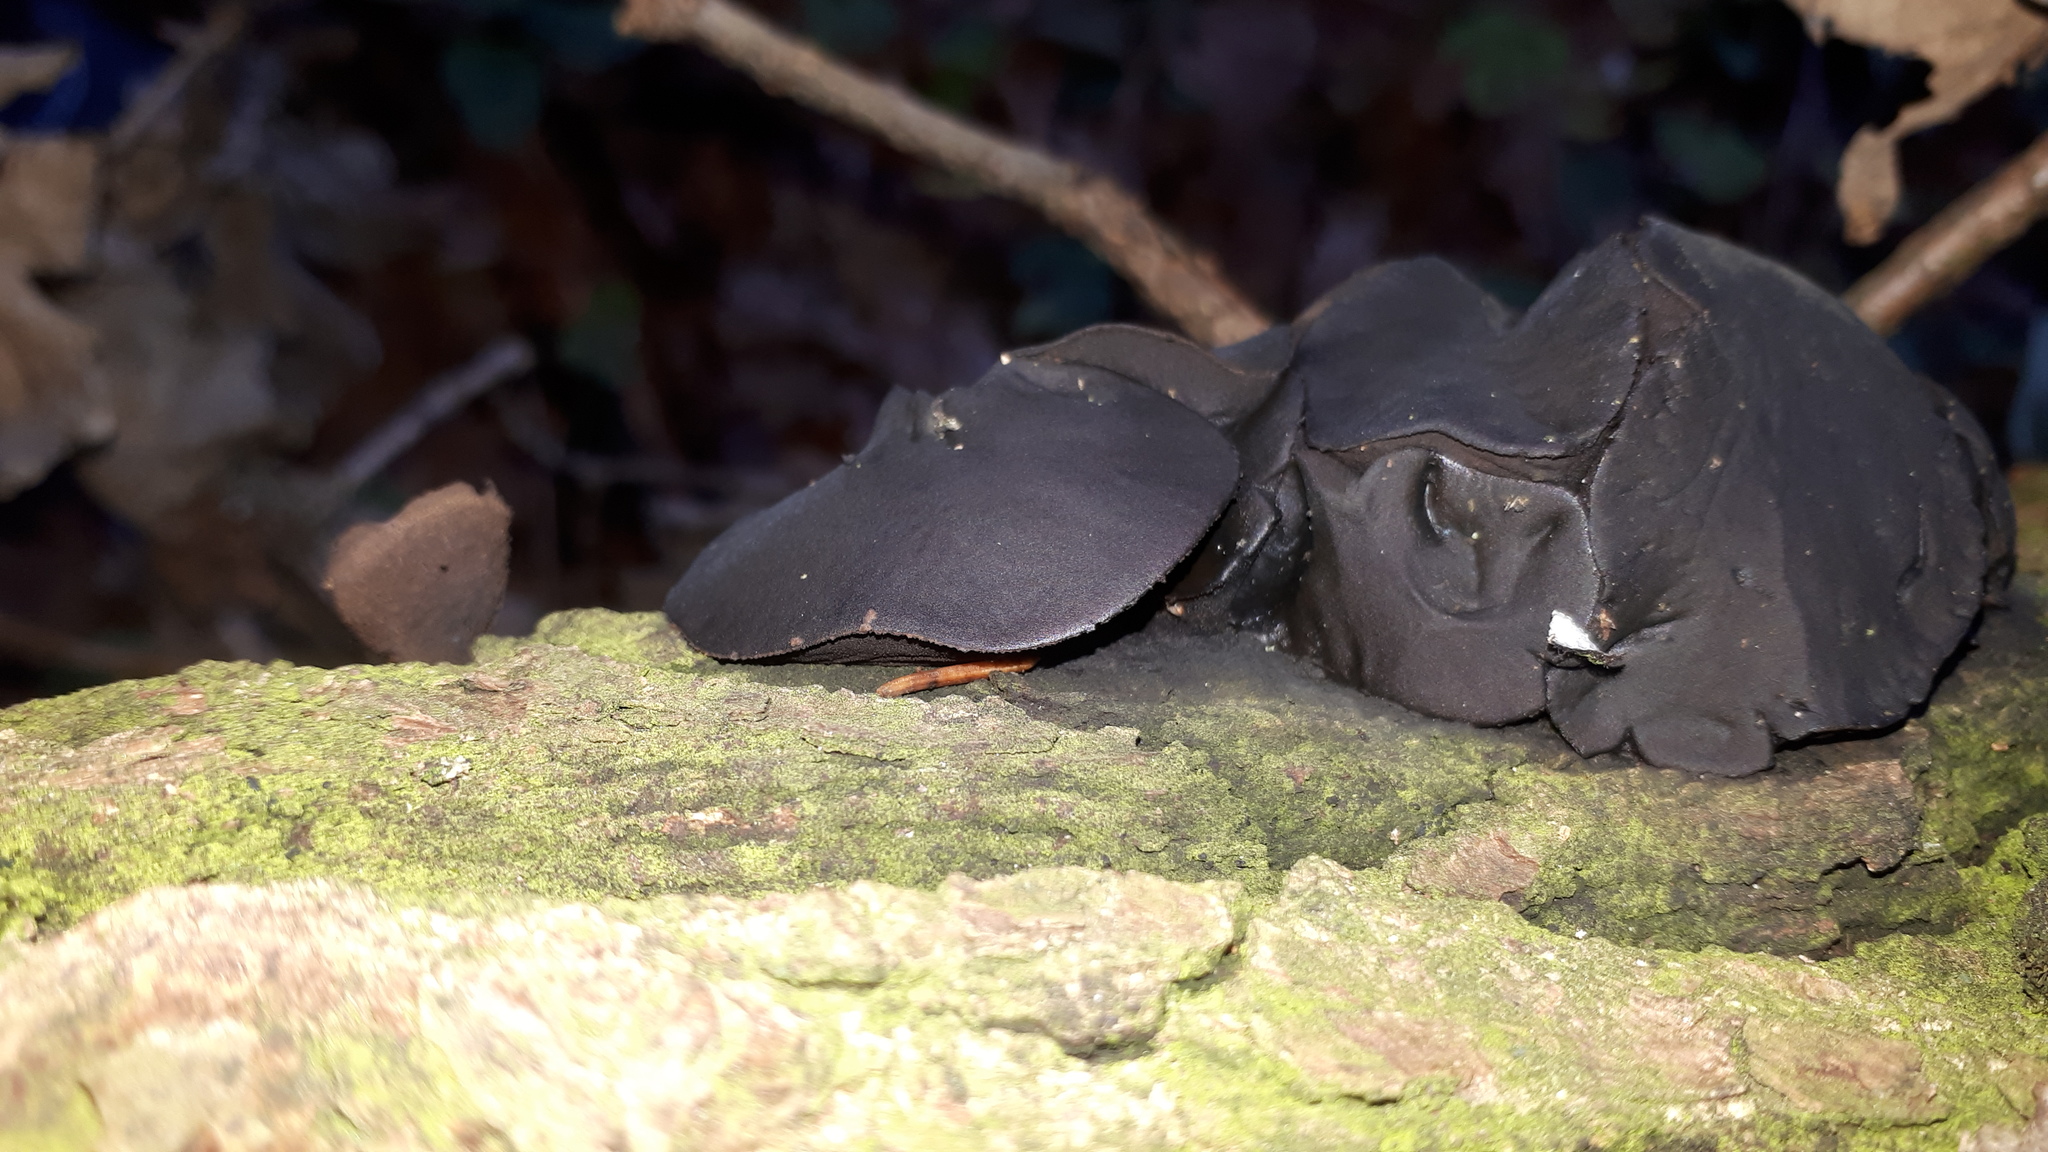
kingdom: Fungi
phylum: Ascomycota
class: Leotiomycetes
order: Phacidiales
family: Phacidiaceae
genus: Bulgaria
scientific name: Bulgaria inquinans
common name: Black bulgar
